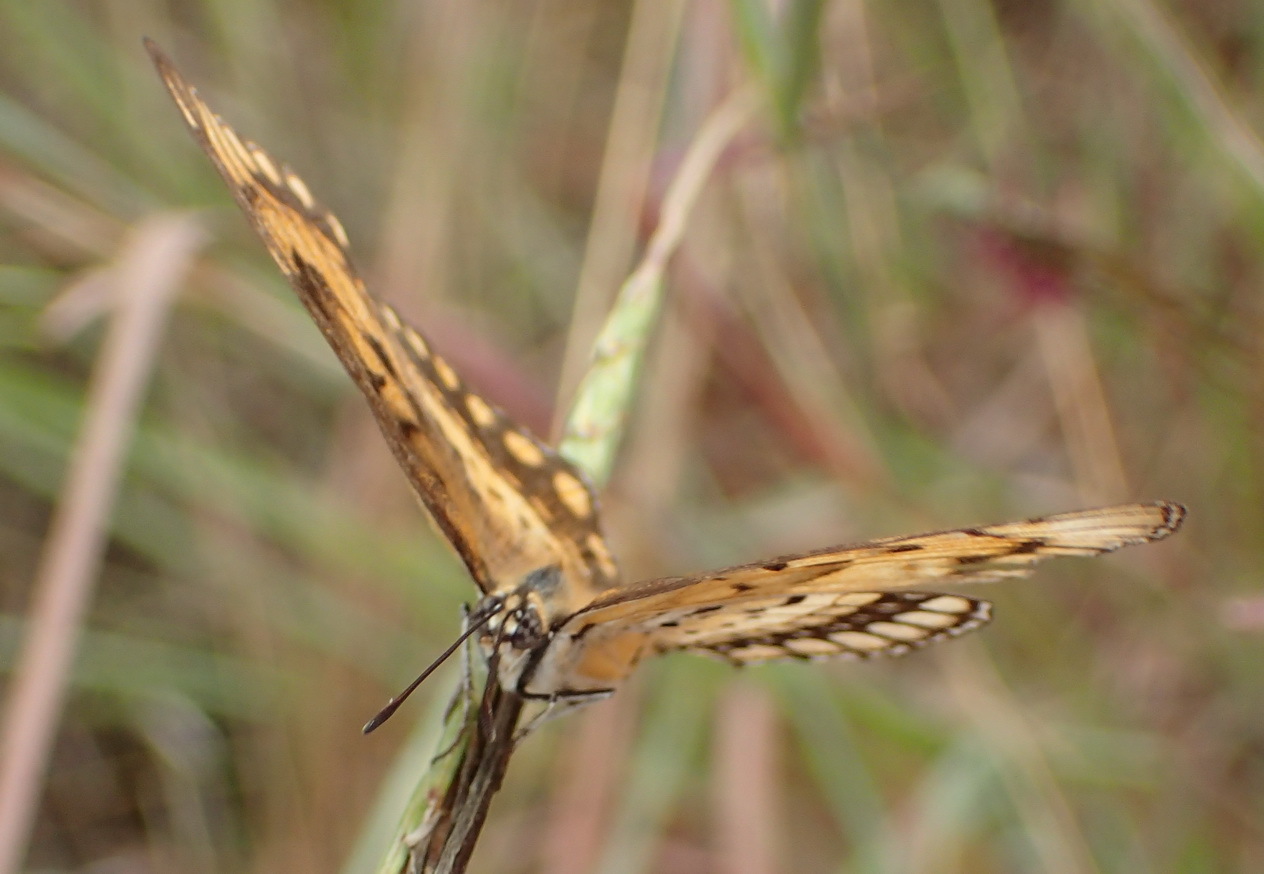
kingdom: Animalia
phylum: Arthropoda
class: Insecta
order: Lepidoptera
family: Nymphalidae
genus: Byblia
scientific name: Byblia ilithyia
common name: Spotted joker
